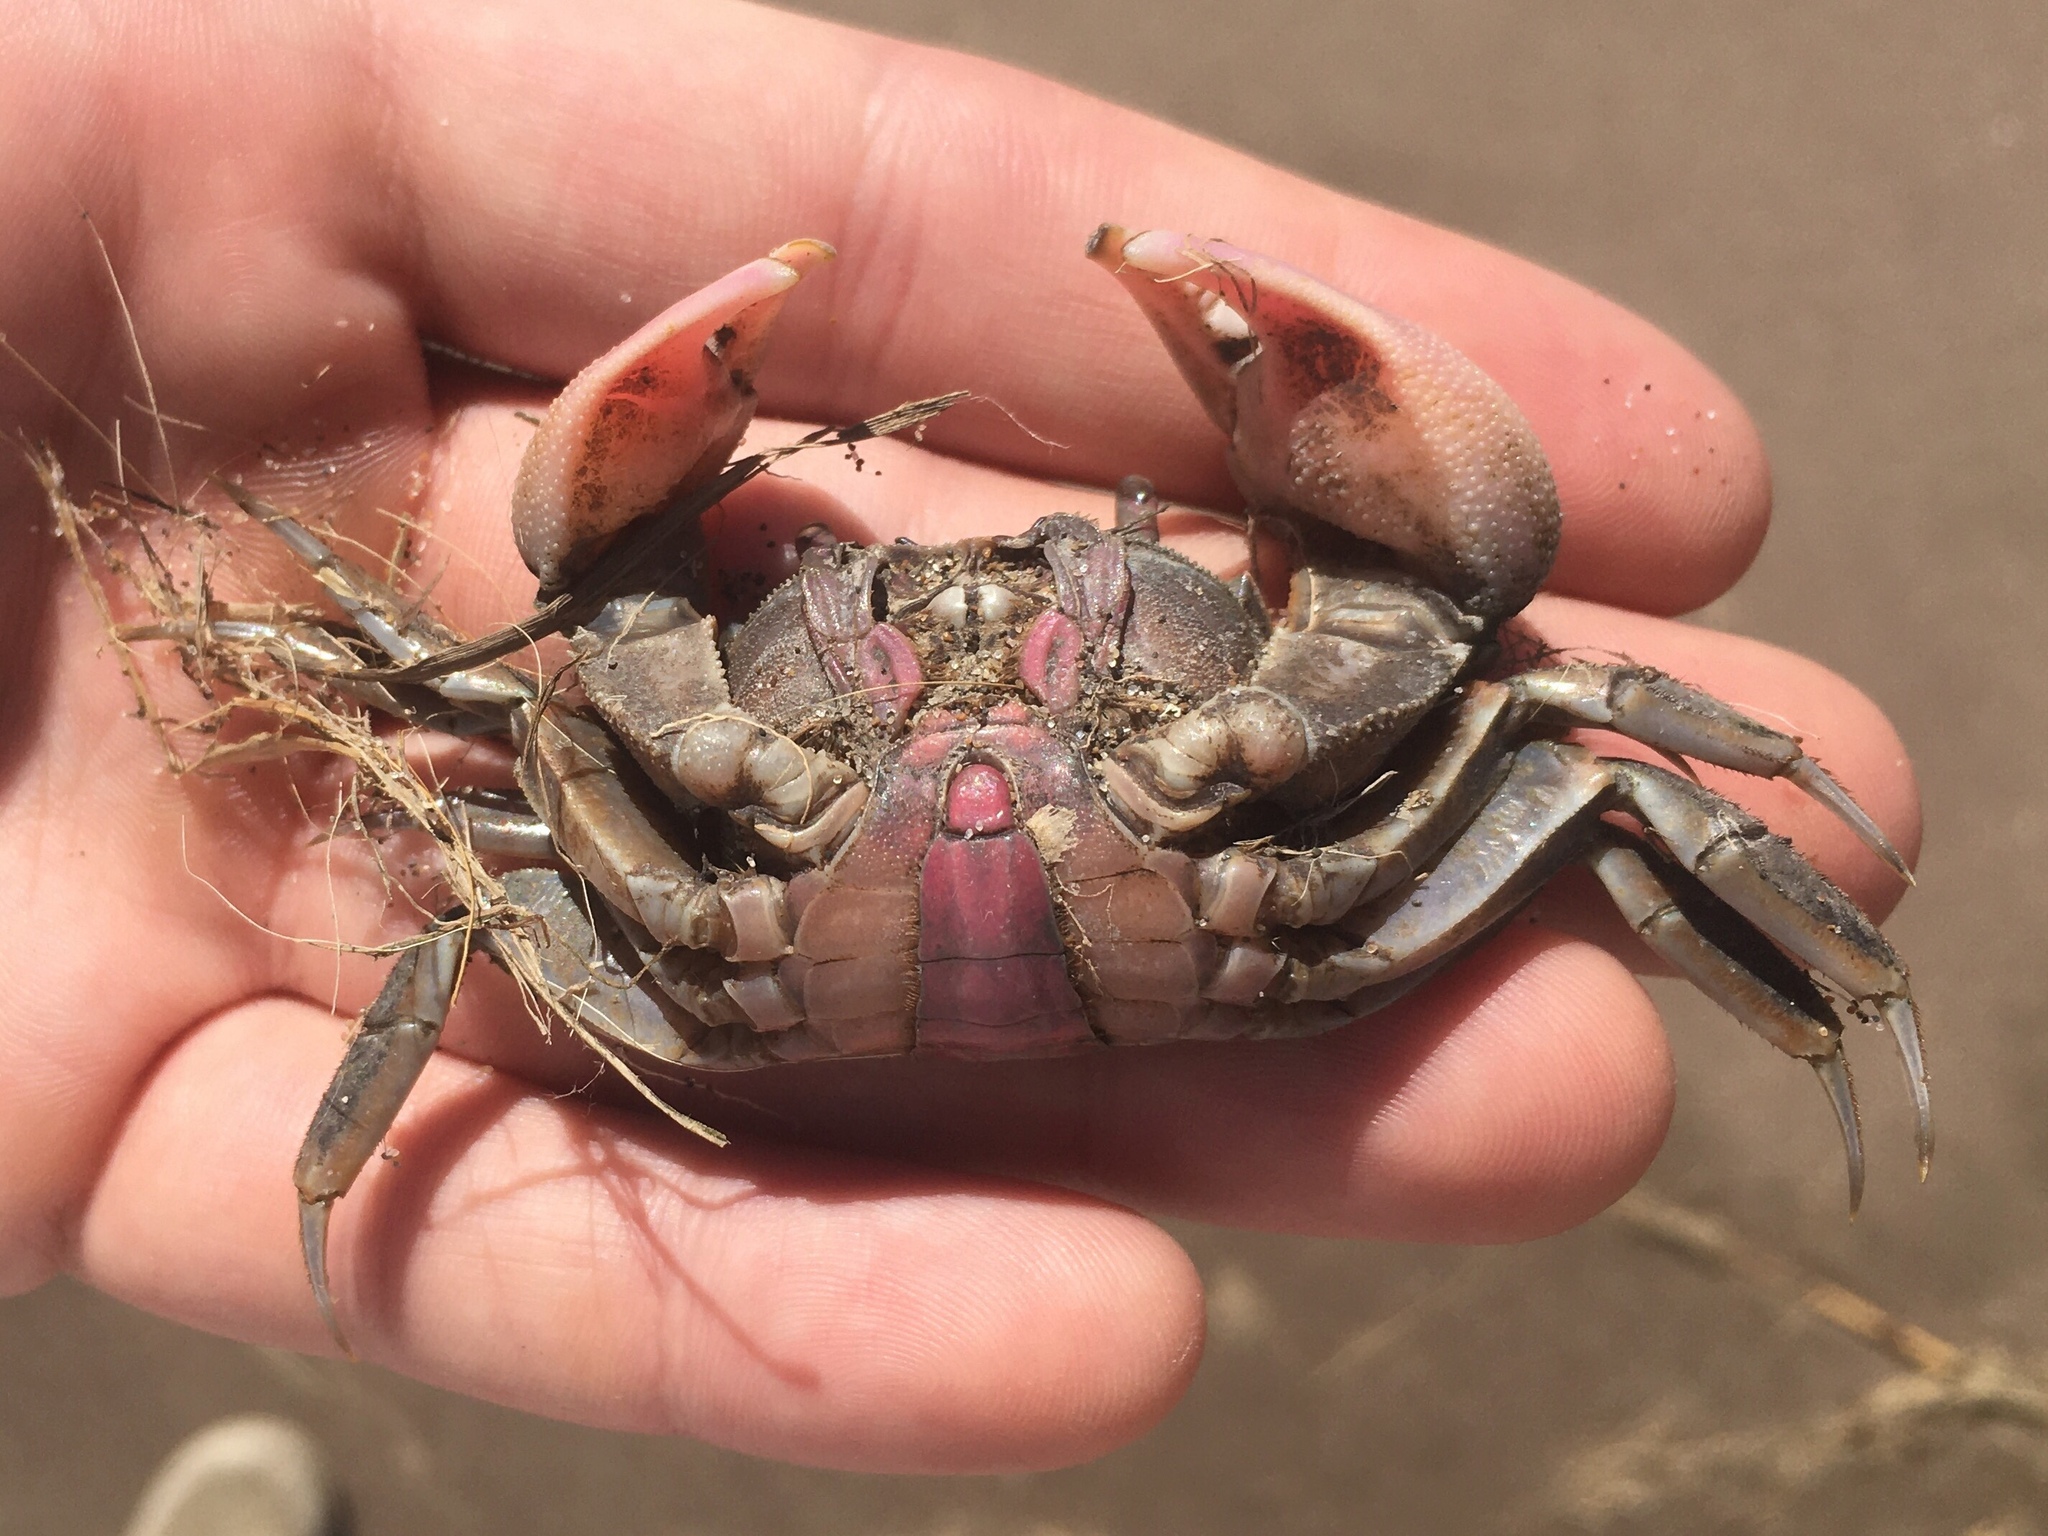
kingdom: Animalia
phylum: Arthropoda
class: Malacostraca
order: Decapoda
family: Varunidae
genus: Neohelice
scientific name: Neohelice granulata
